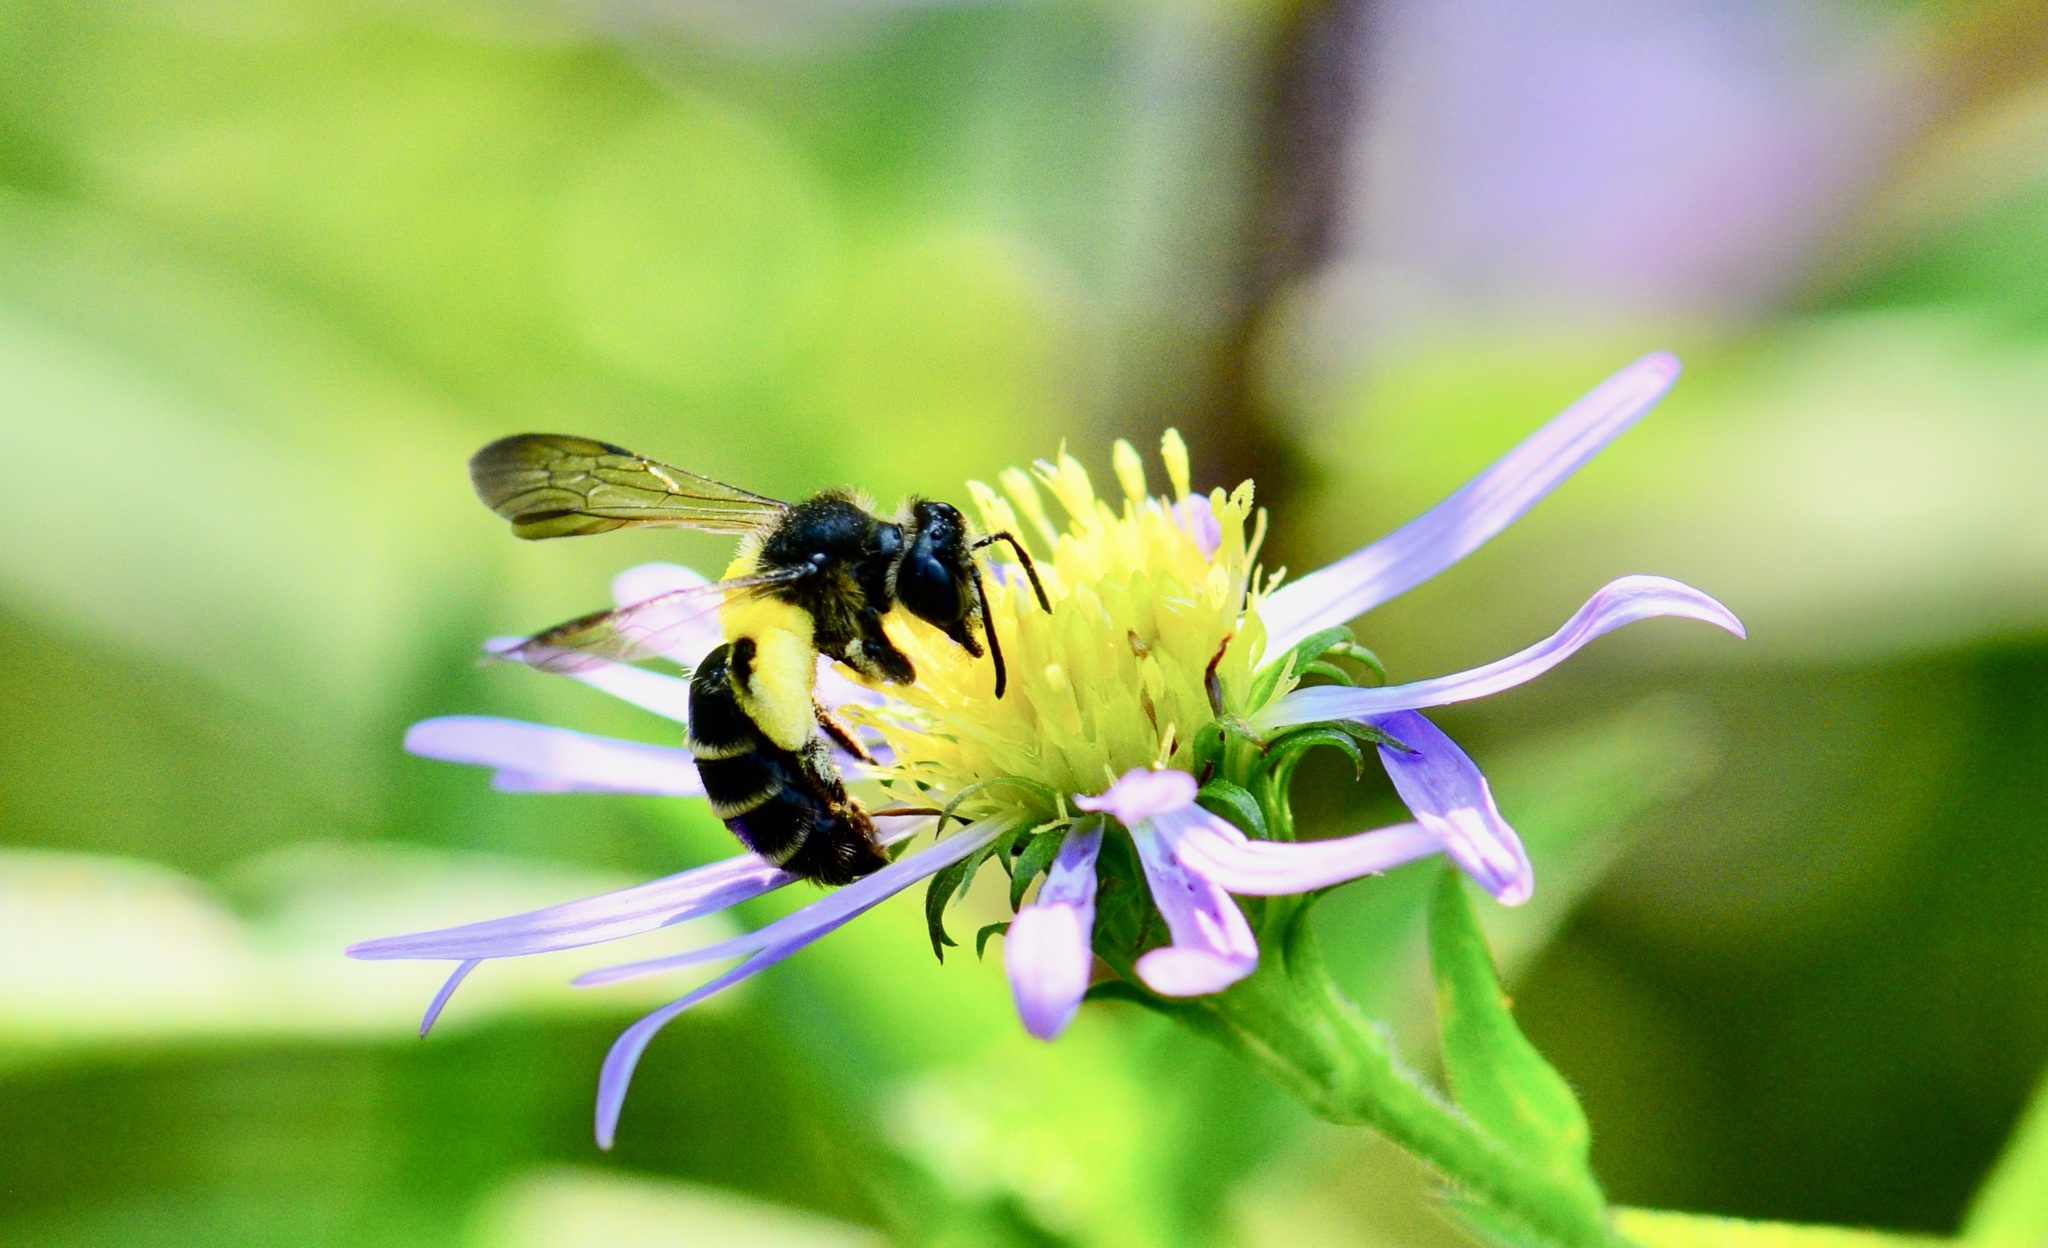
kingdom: Animalia
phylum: Arthropoda
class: Insecta
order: Hymenoptera
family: Andrenidae
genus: Andrena
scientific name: Andrena robervalensis
